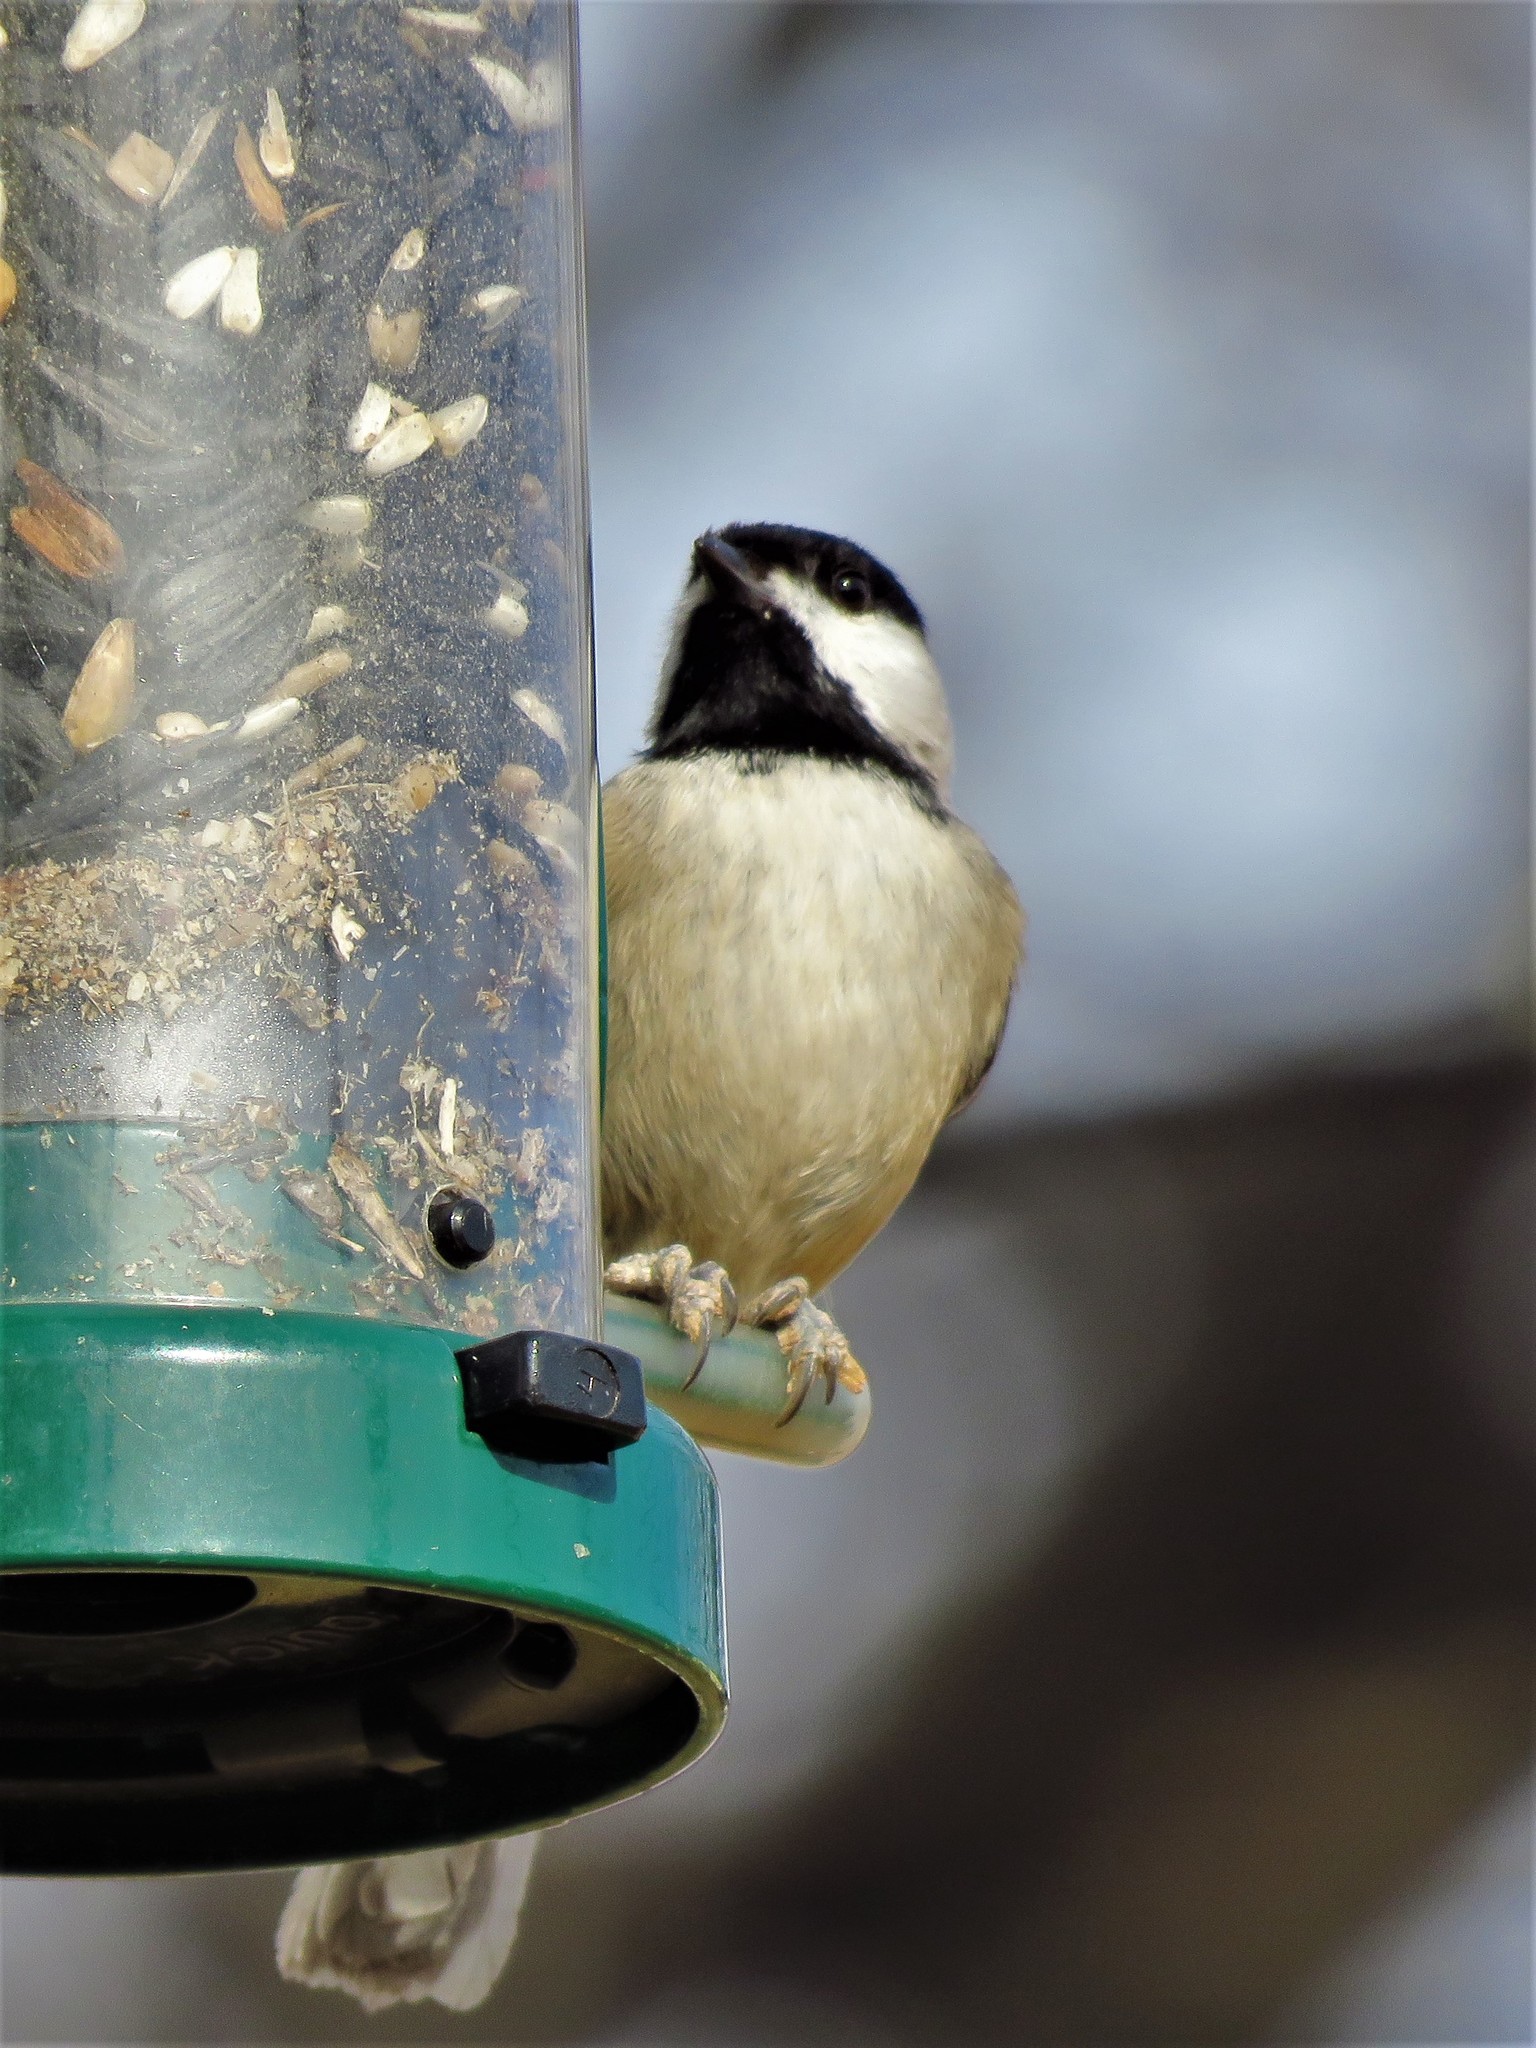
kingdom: Animalia
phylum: Chordata
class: Aves
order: Passeriformes
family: Paridae
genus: Poecile
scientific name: Poecile carolinensis
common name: Carolina chickadee
